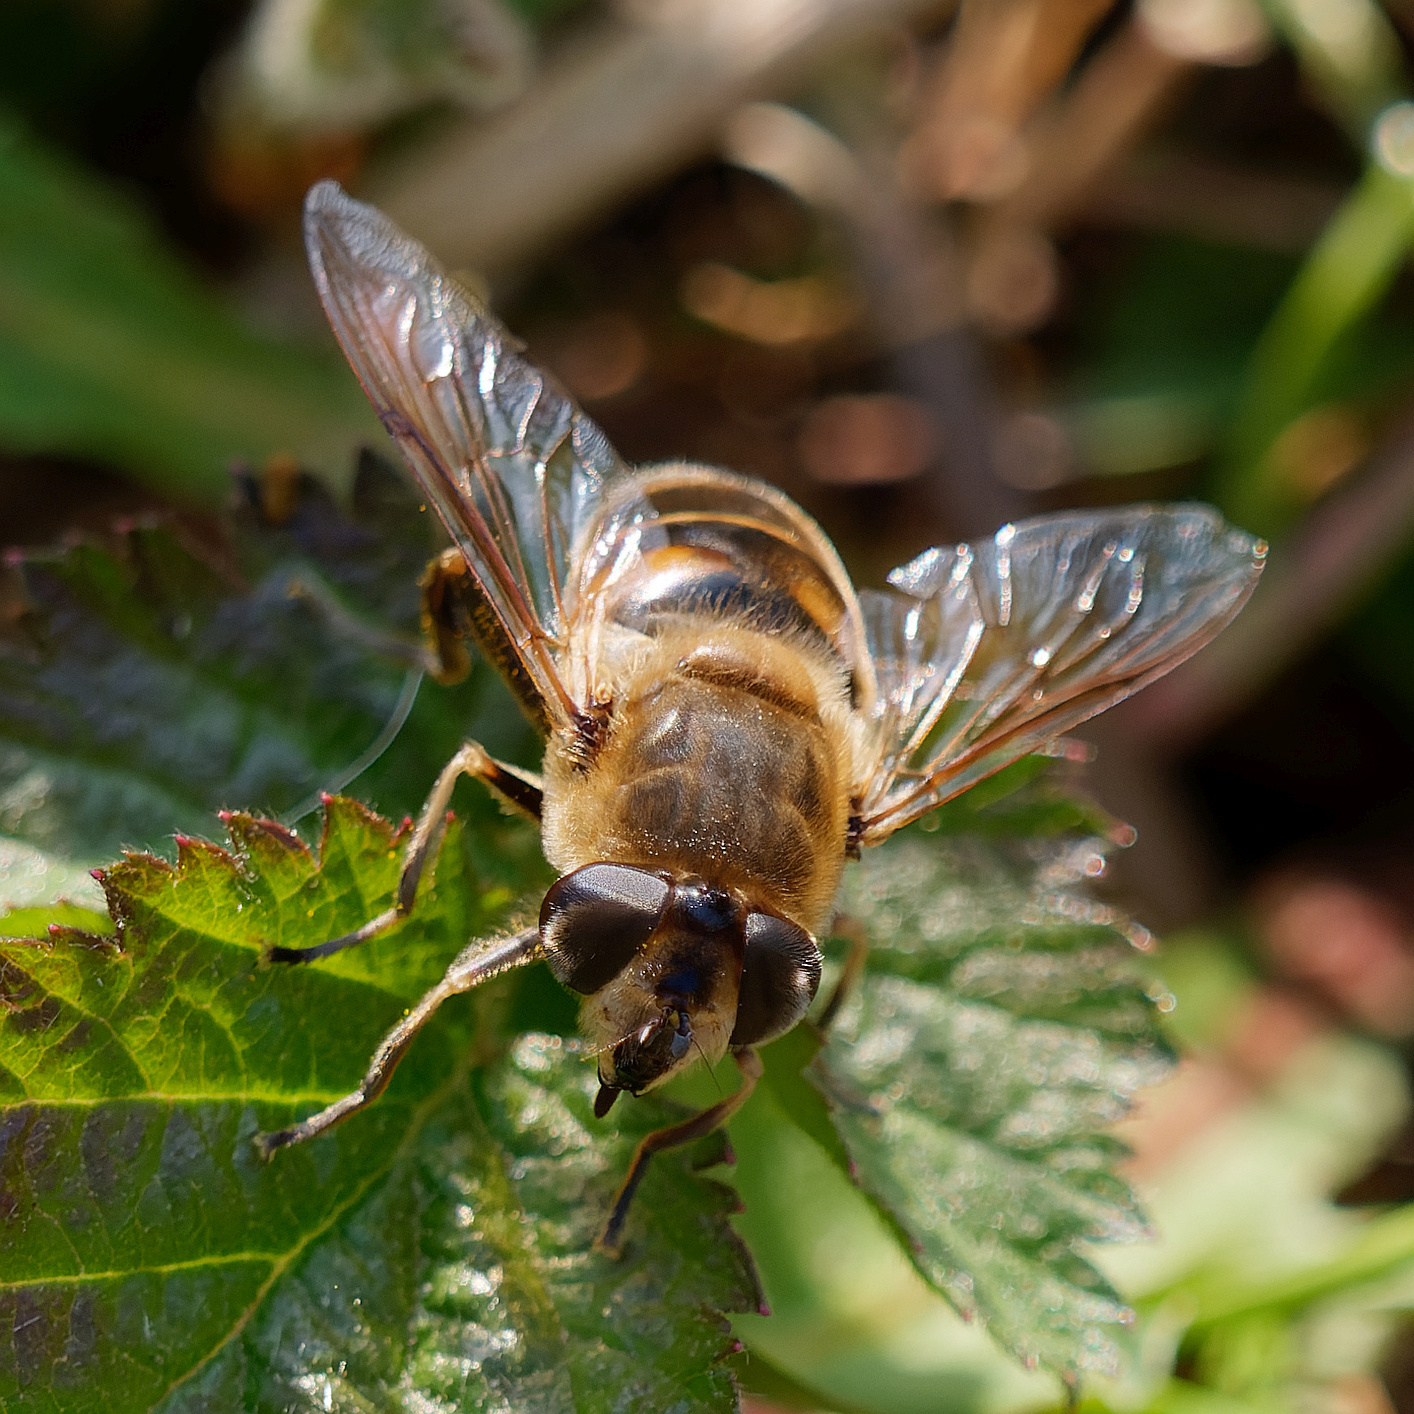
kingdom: Animalia
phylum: Arthropoda
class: Insecta
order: Diptera
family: Syrphidae
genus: Eristalis
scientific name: Eristalis tenax
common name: Drone fly
